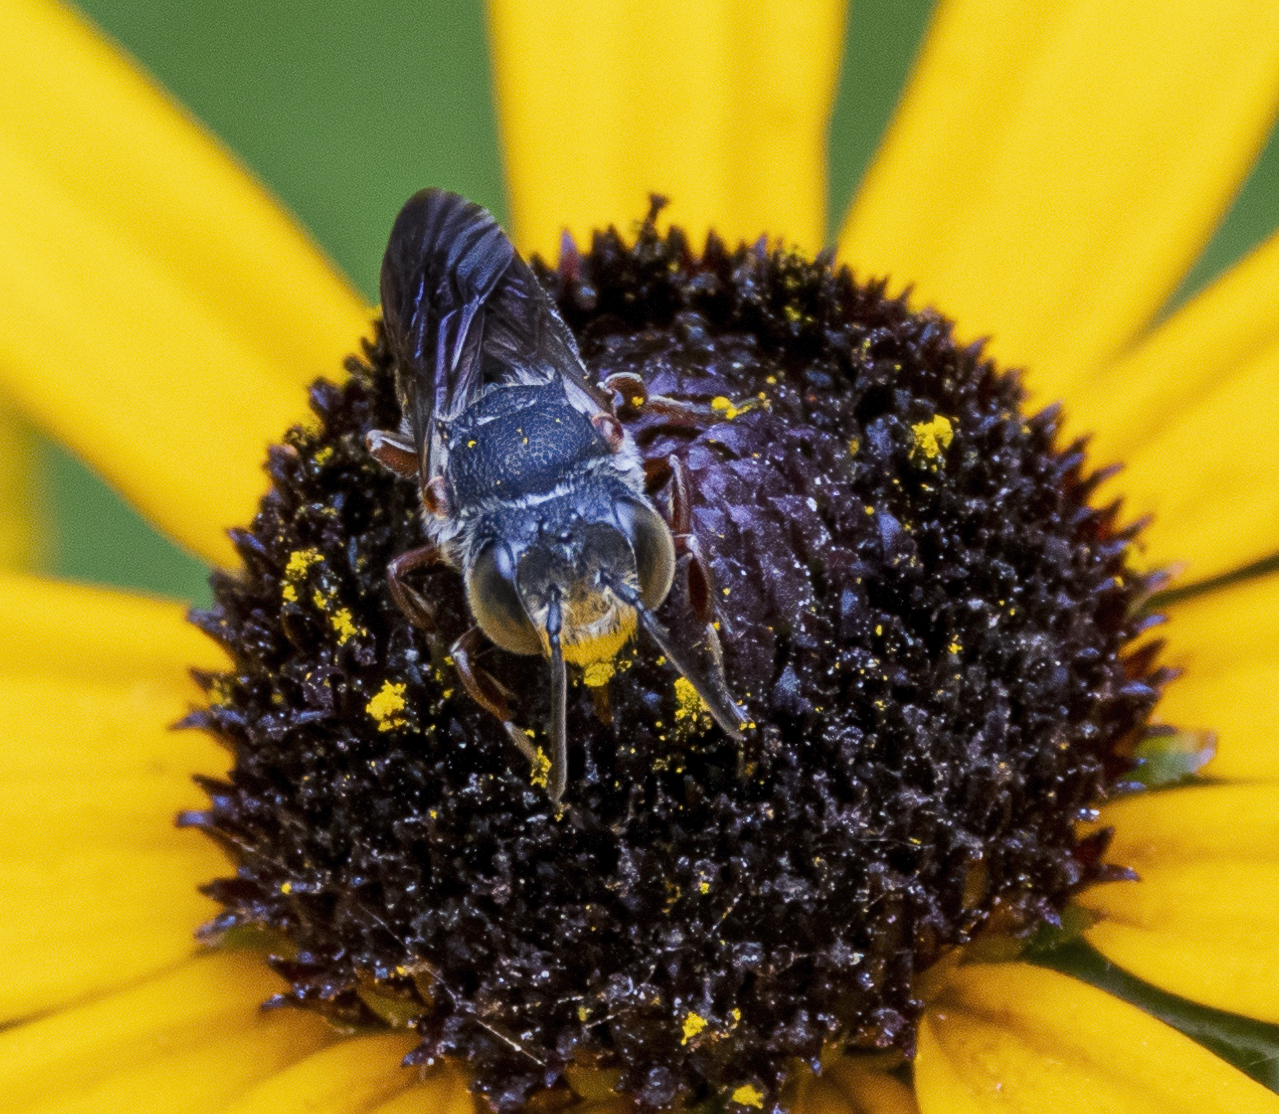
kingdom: Animalia
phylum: Arthropoda
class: Insecta
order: Hymenoptera
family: Megachilidae
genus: Coelioxys
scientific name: Coelioxys
